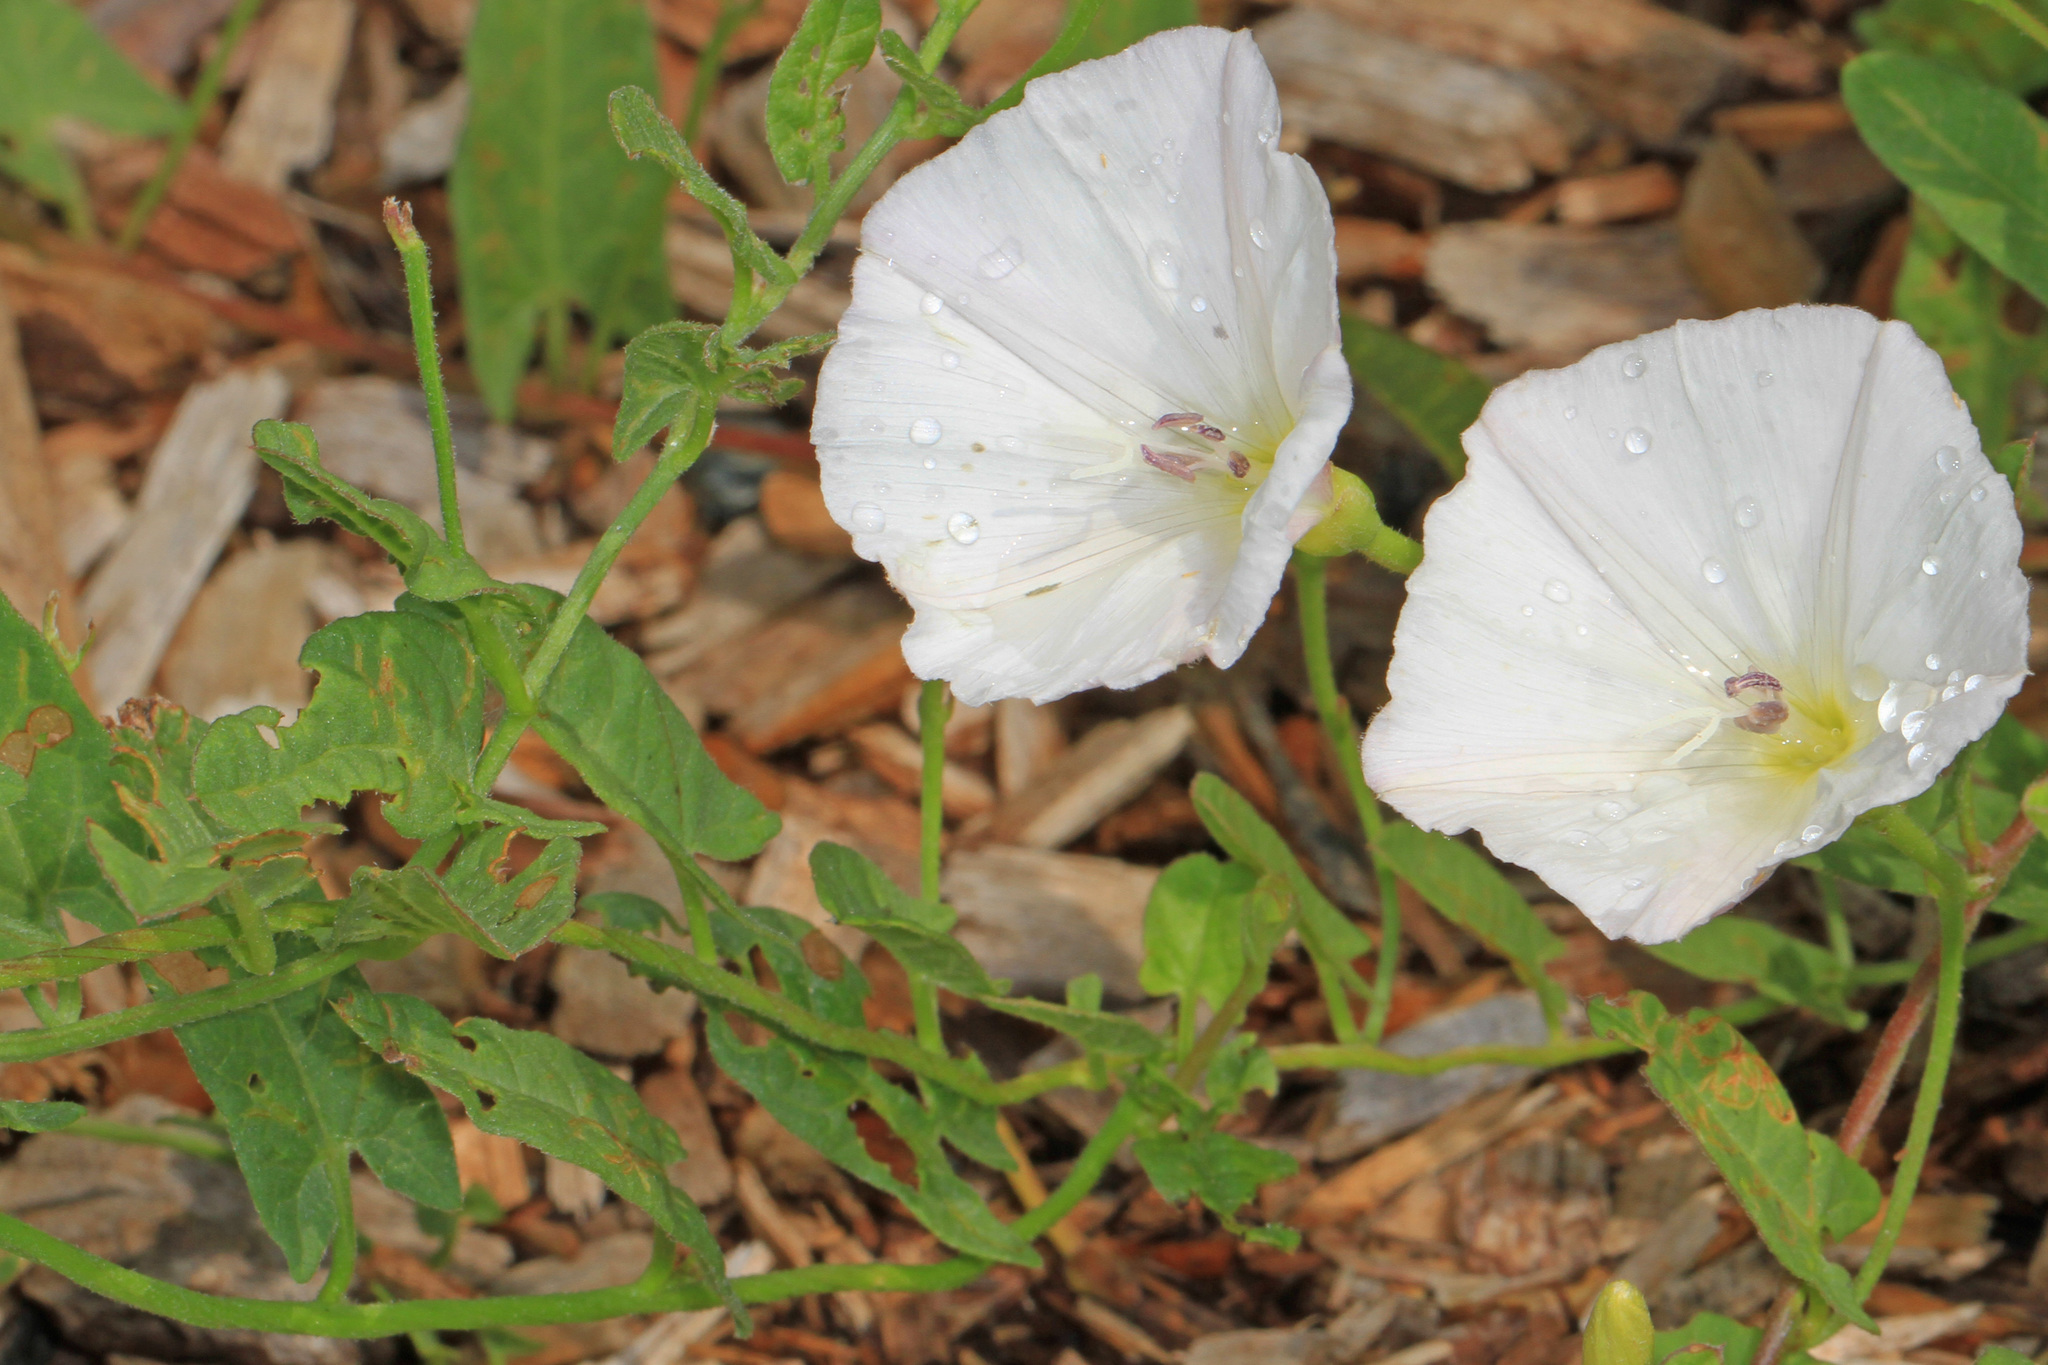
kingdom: Plantae
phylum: Tracheophyta
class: Magnoliopsida
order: Solanales
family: Convolvulaceae
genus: Convolvulus
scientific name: Convolvulus arvensis
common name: Field bindweed
